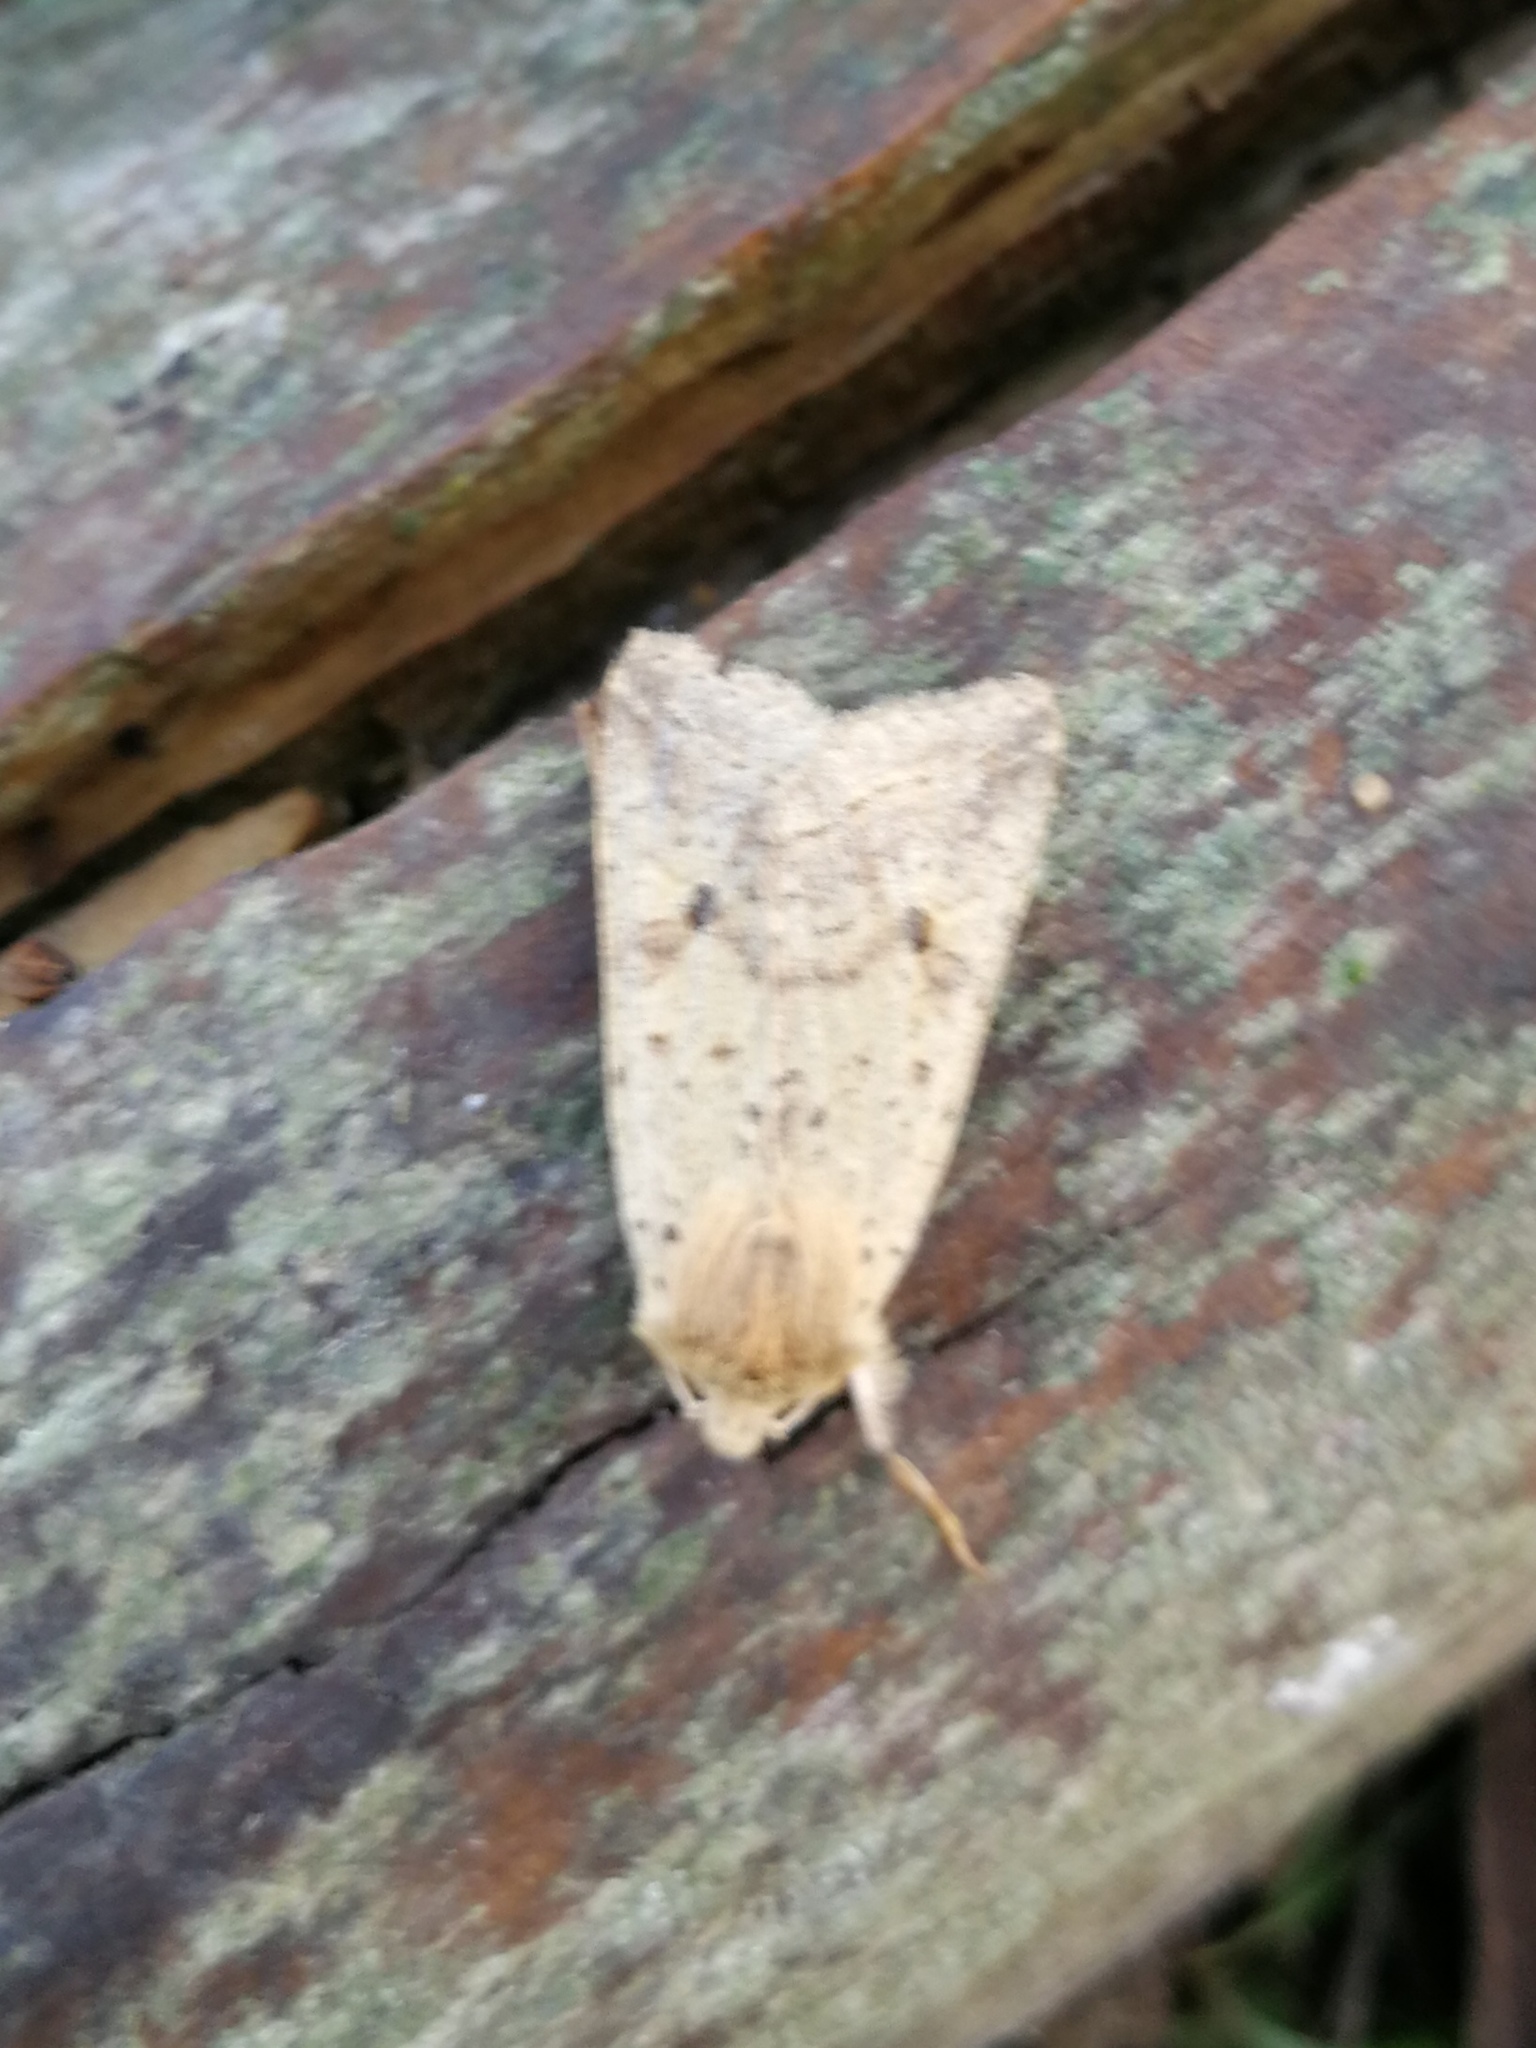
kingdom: Animalia
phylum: Arthropoda
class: Insecta
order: Lepidoptera
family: Noctuidae
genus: Agrochola
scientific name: Agrochola blidaensis
